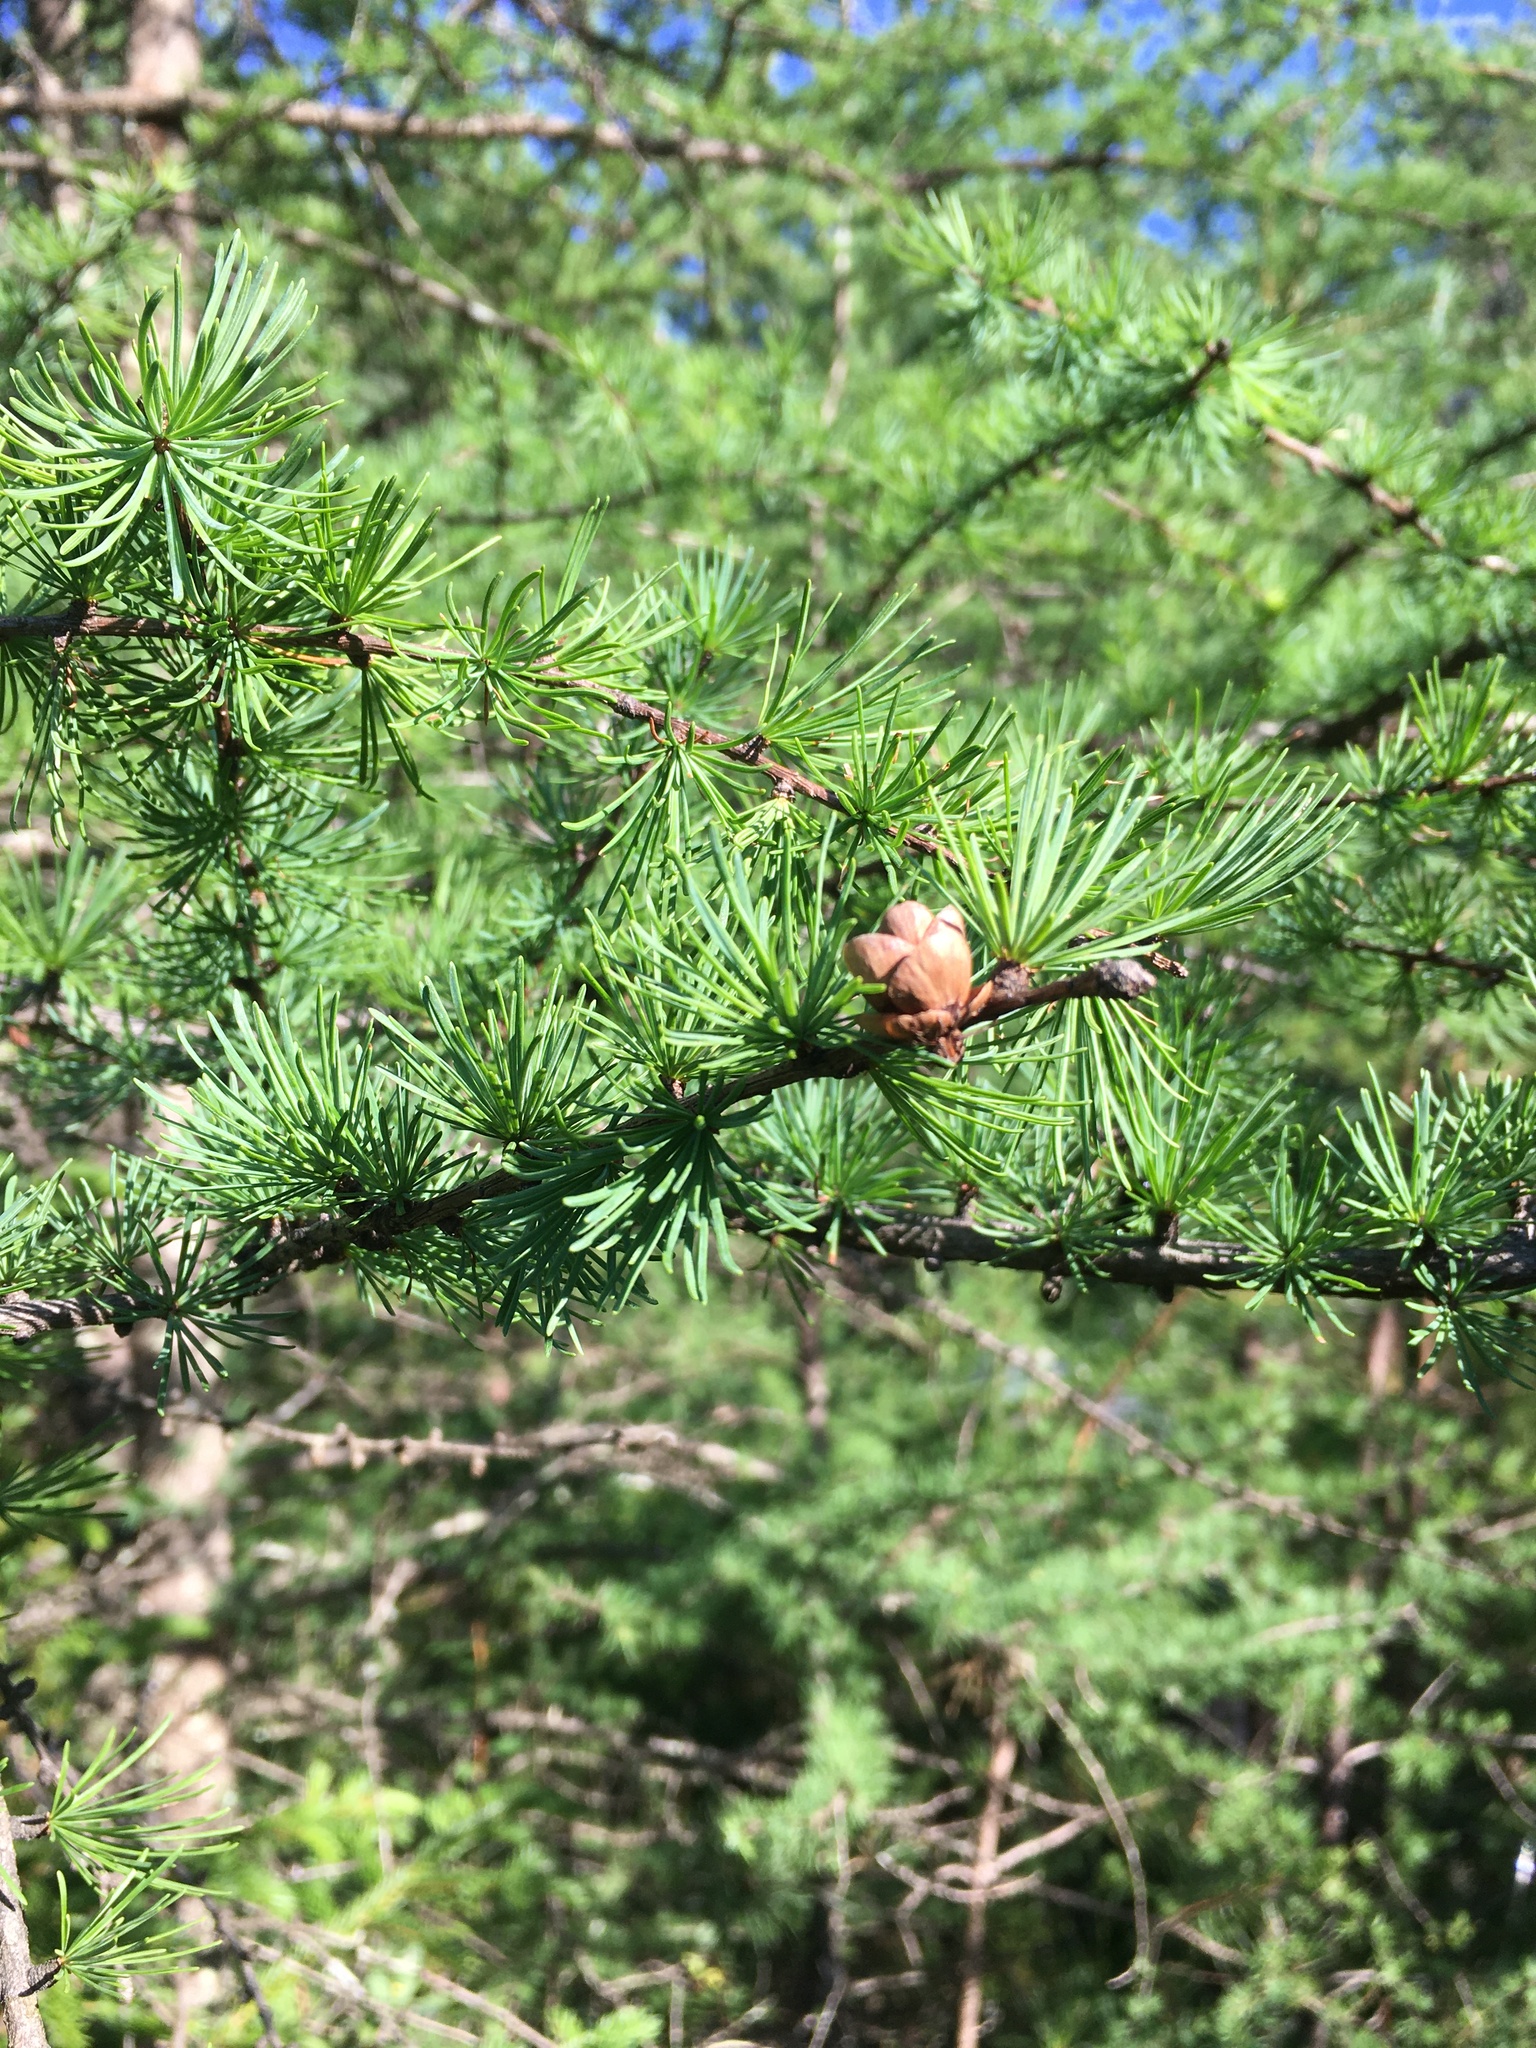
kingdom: Plantae
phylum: Tracheophyta
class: Pinopsida
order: Pinales
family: Pinaceae
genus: Larix
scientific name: Larix laricina
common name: American larch
